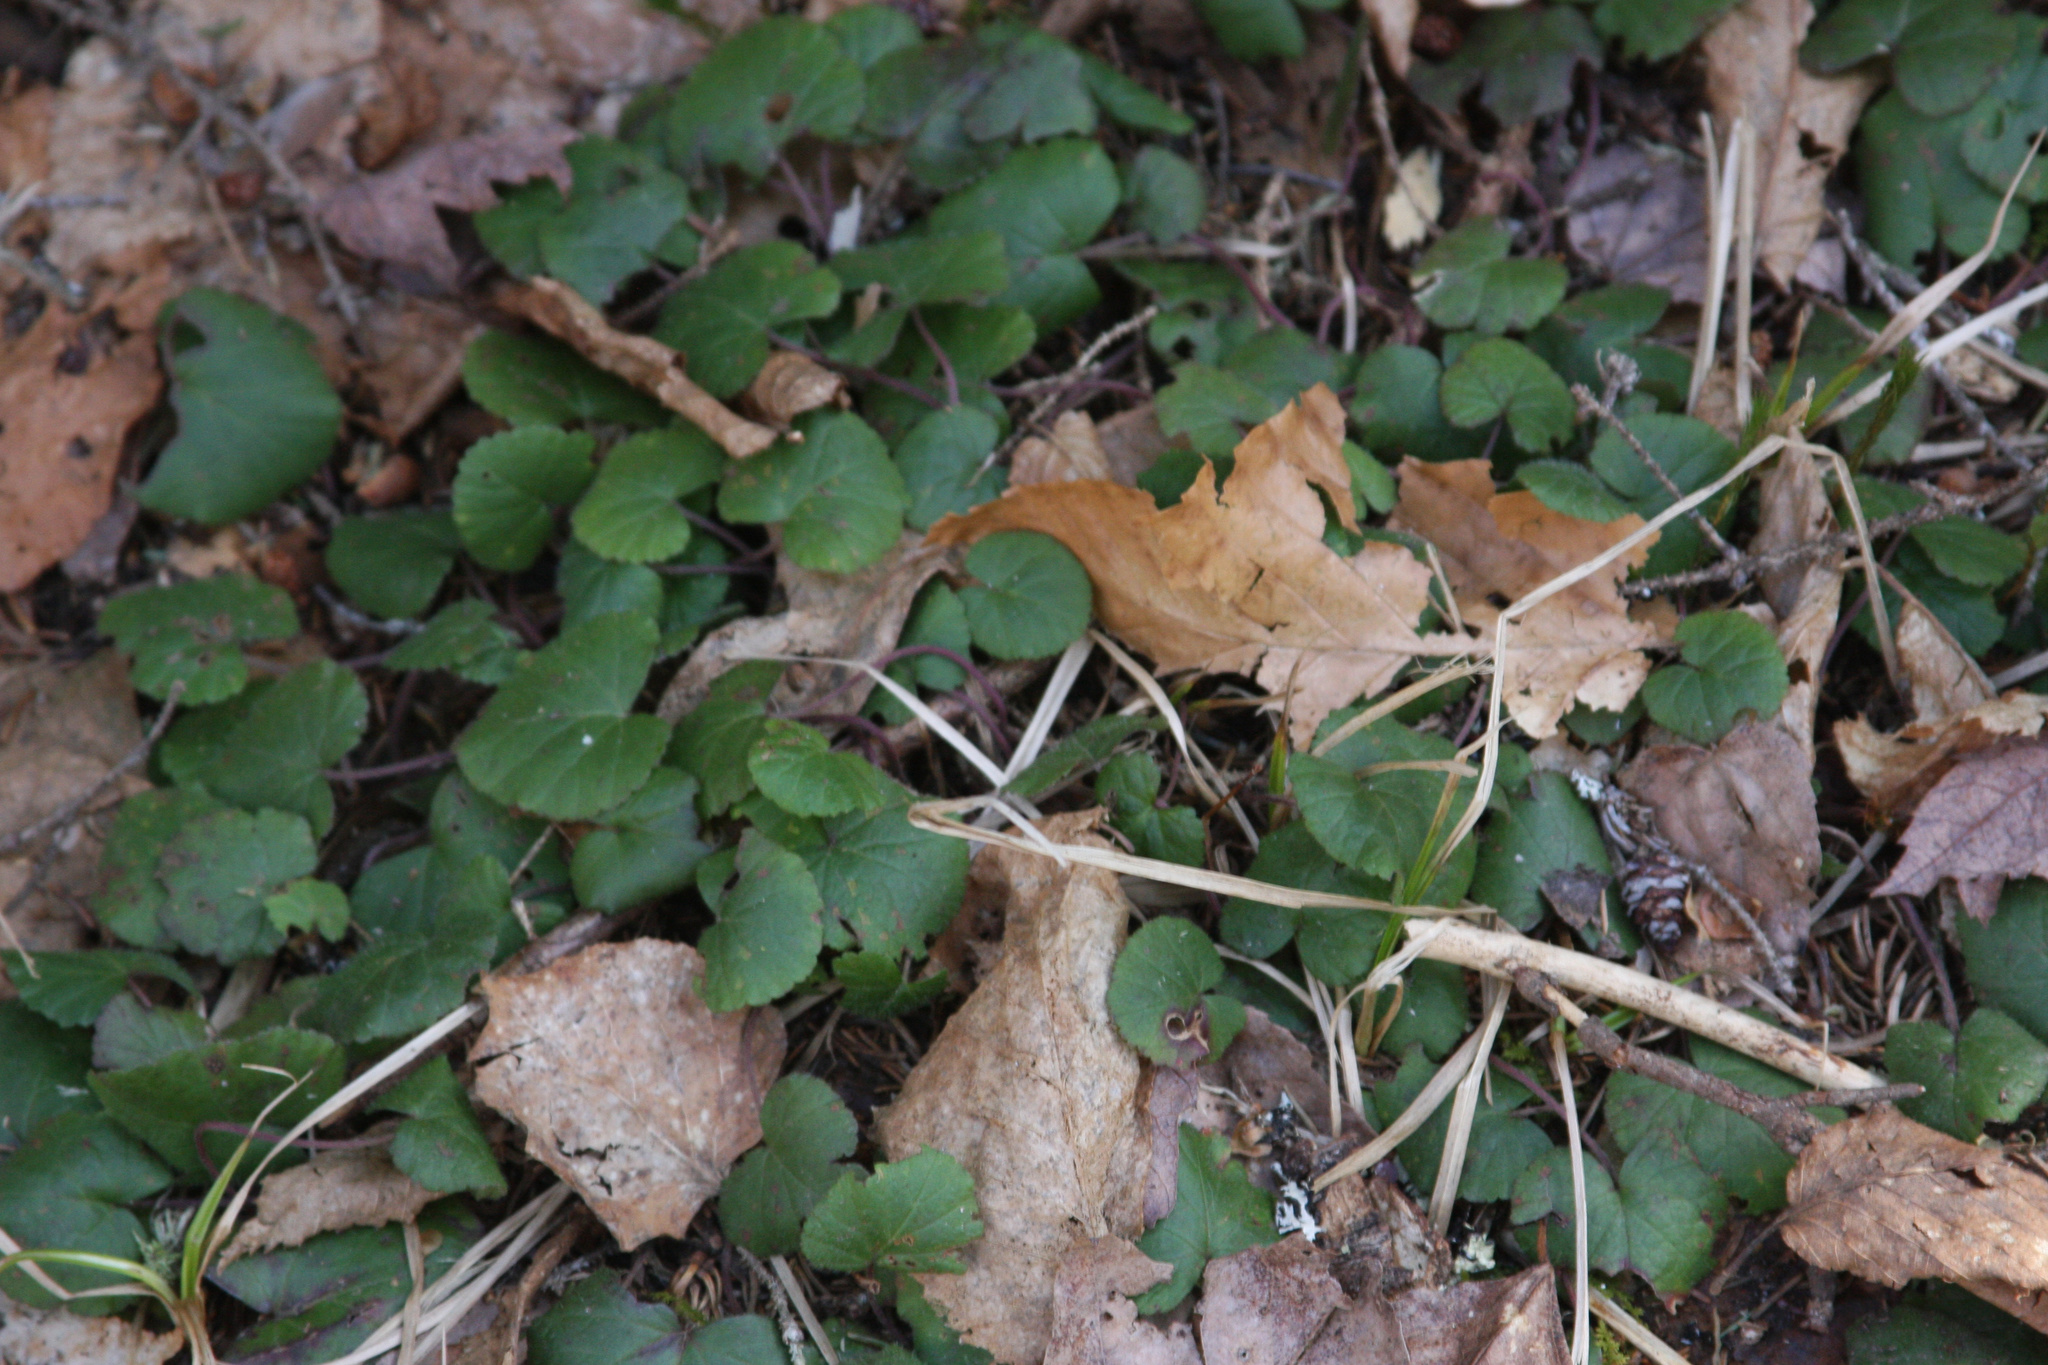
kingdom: Plantae
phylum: Tracheophyta
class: Magnoliopsida
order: Rosales
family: Rosaceae
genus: Dalibarda
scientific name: Dalibarda repens
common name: Dewdrop
